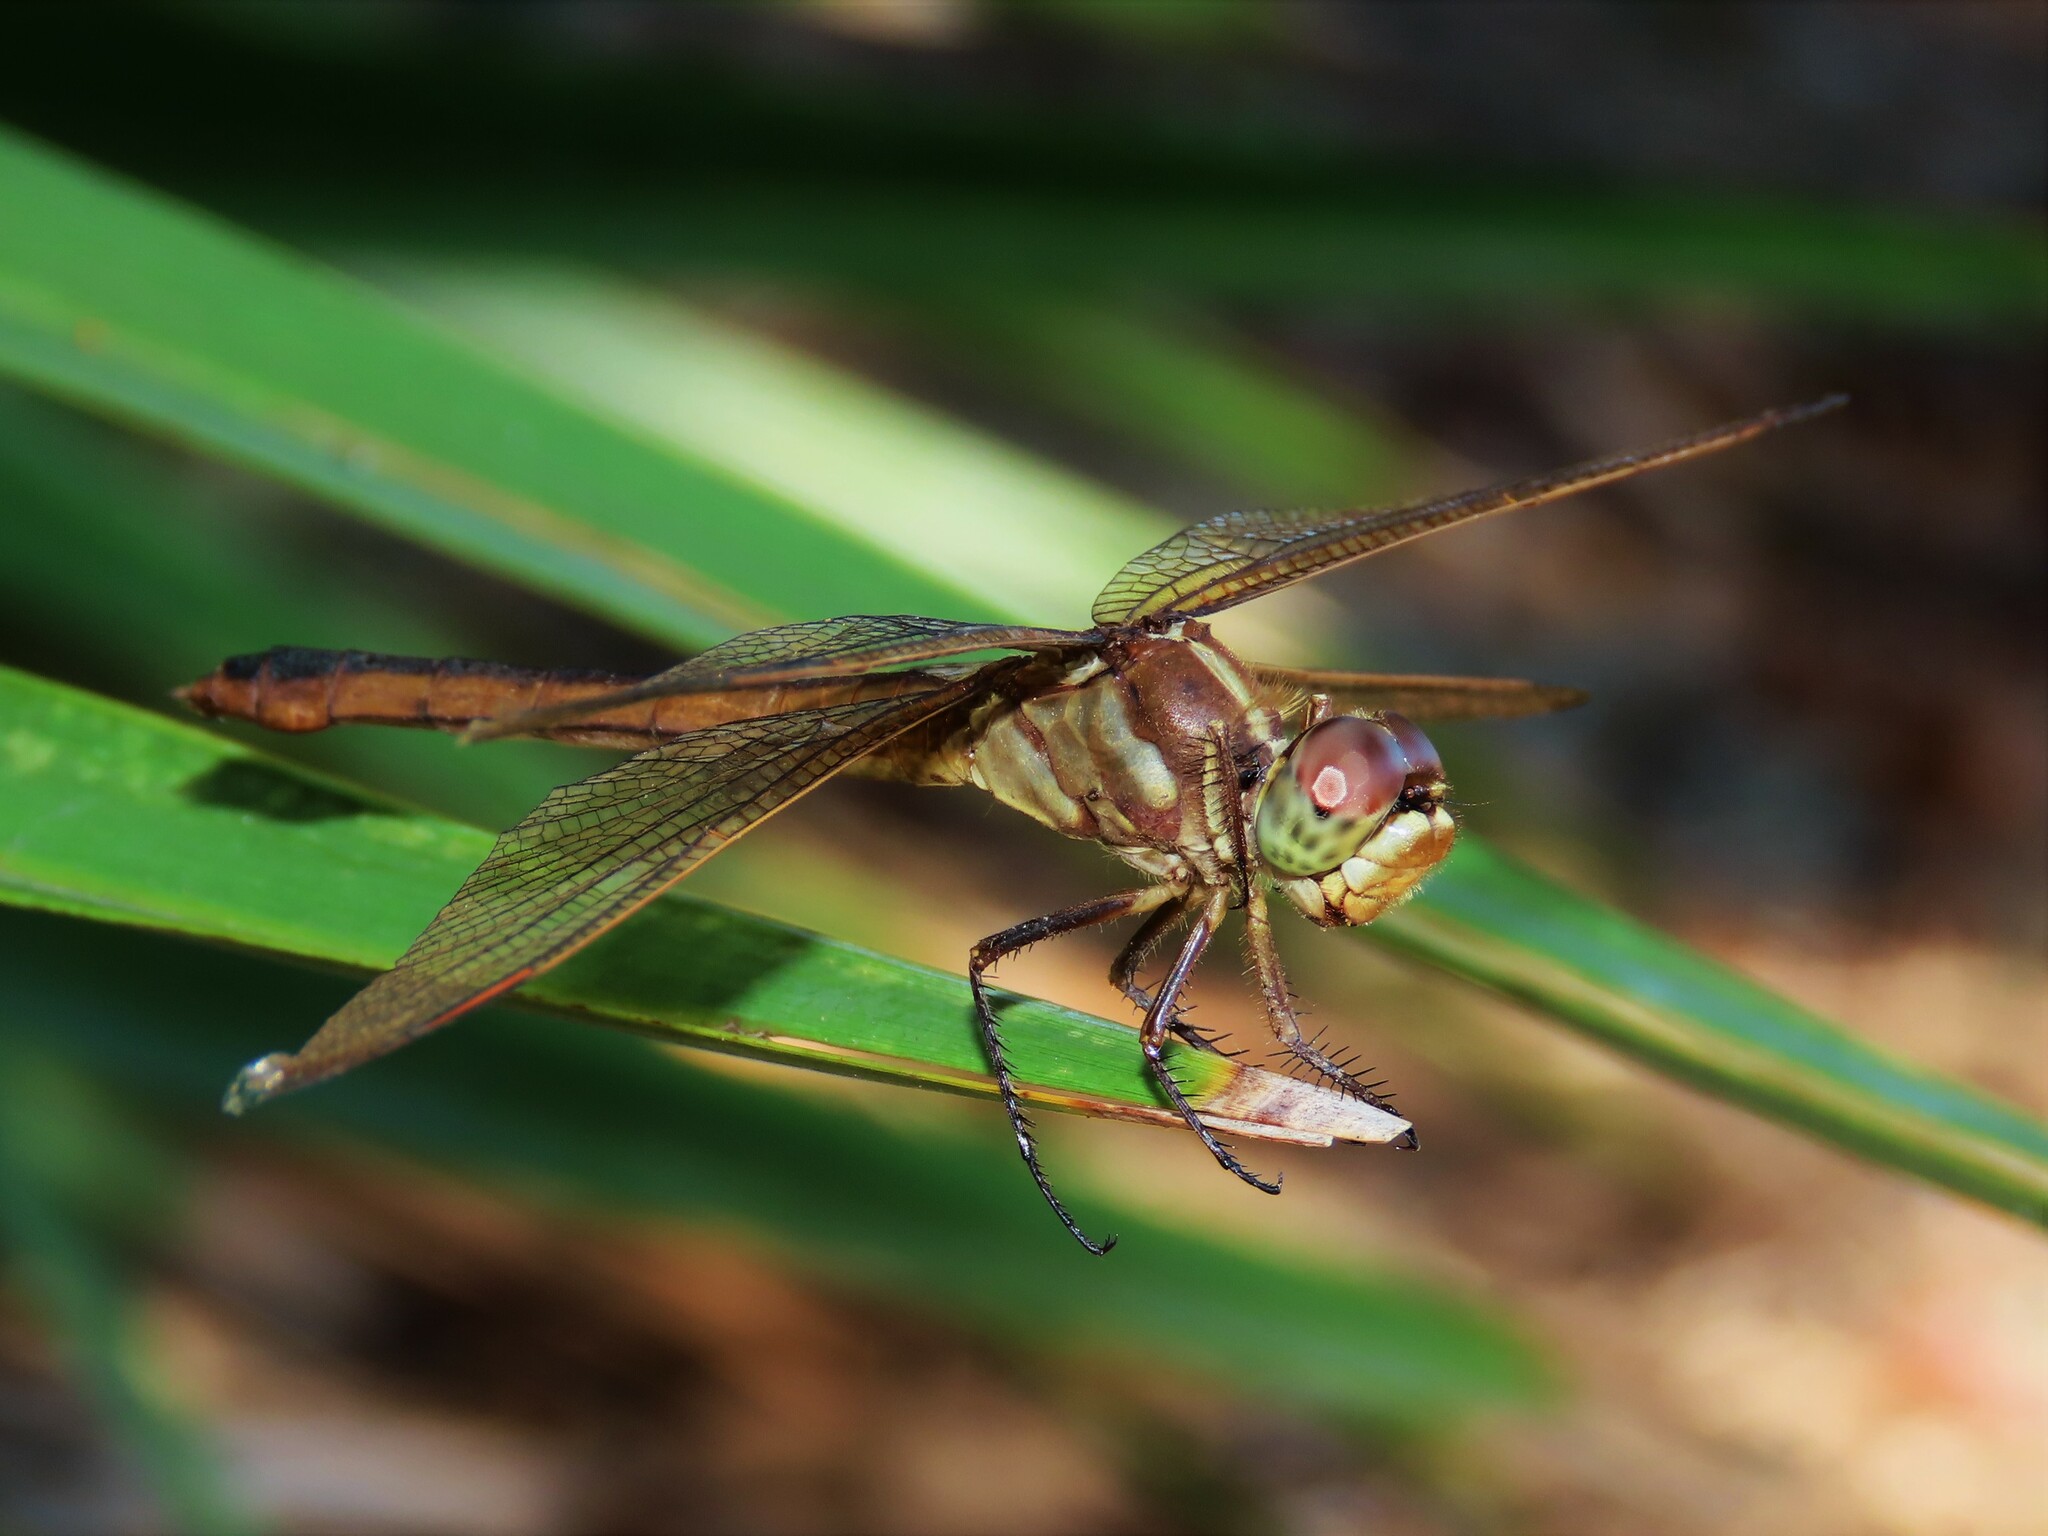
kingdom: Animalia
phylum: Arthropoda
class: Insecta
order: Odonata
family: Libellulidae
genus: Libellula
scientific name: Libellula auripennis
